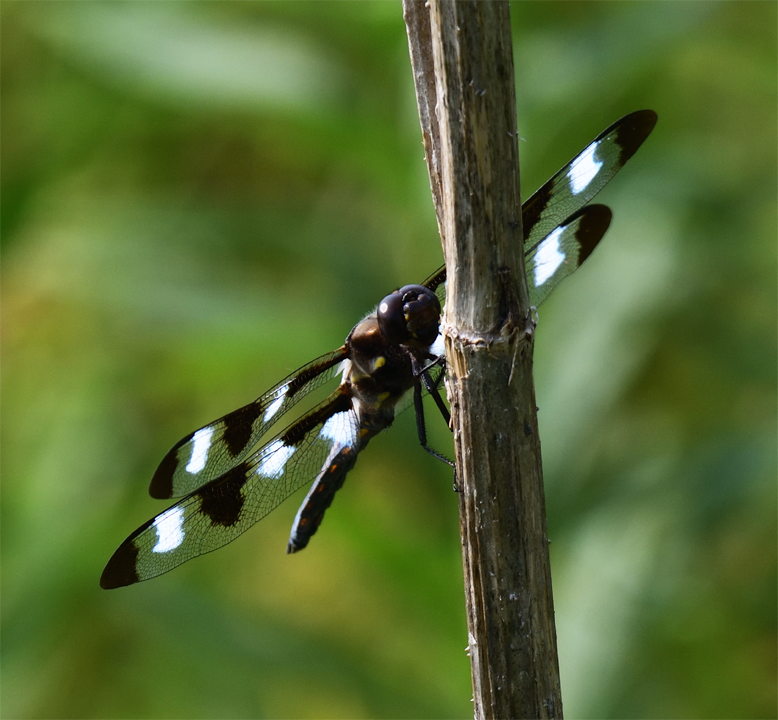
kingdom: Animalia
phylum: Arthropoda
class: Insecta
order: Odonata
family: Libellulidae
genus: Libellula
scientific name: Libellula pulchella
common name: Twelve-spotted skimmer
